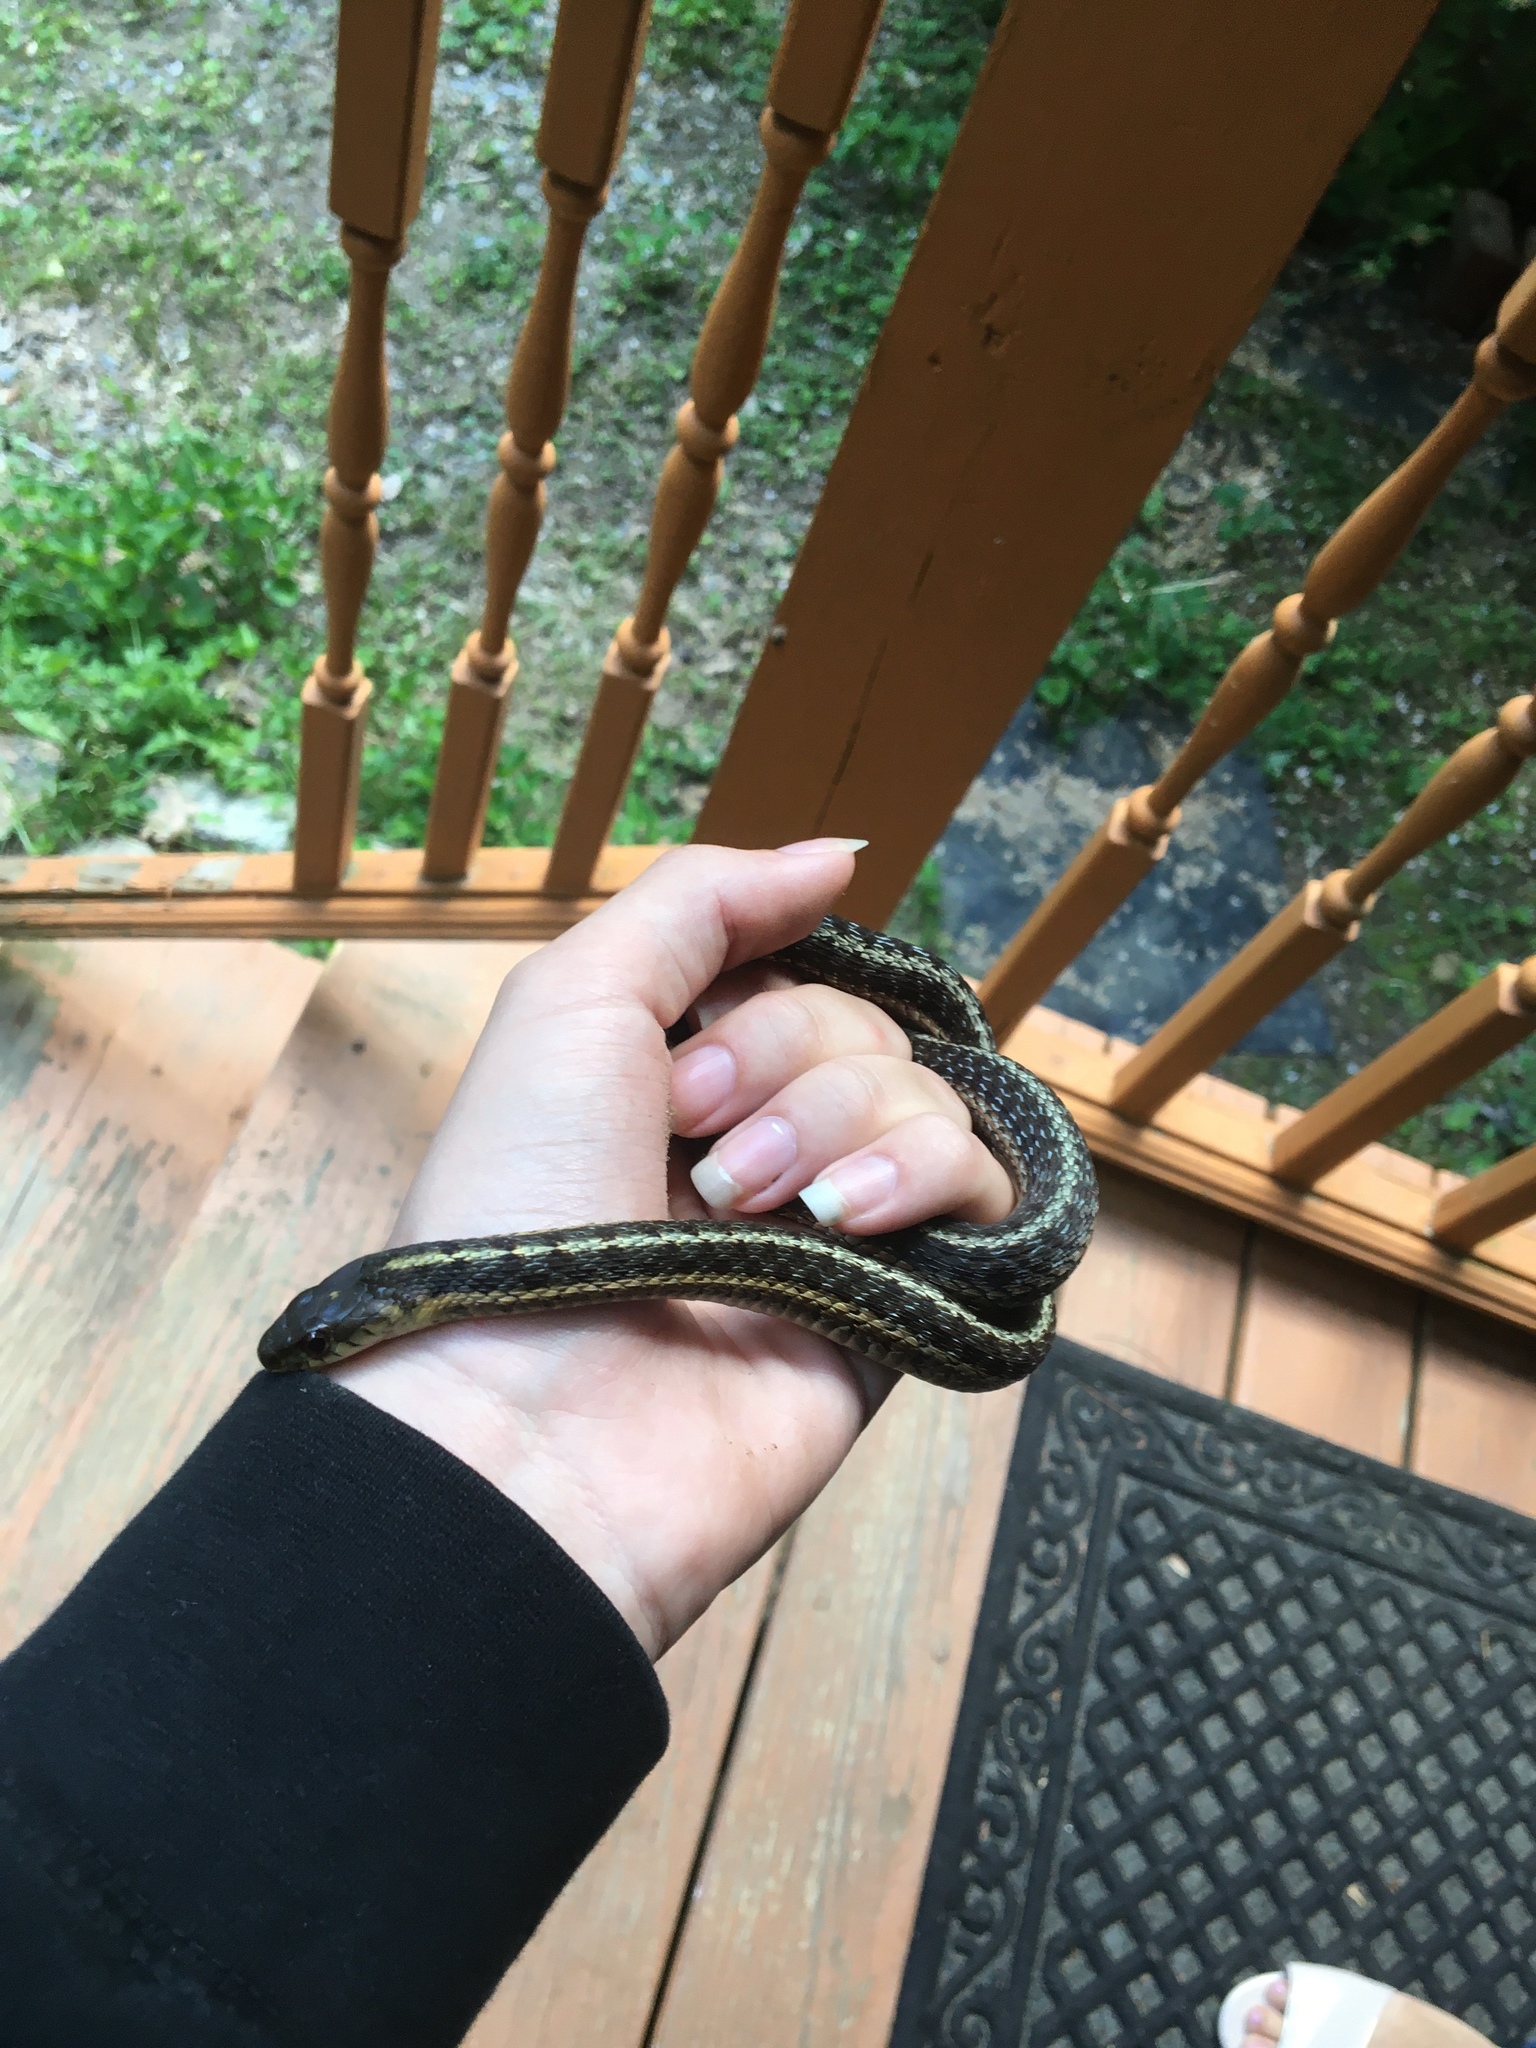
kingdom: Animalia
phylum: Chordata
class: Squamata
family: Colubridae
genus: Thamnophis
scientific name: Thamnophis sirtalis
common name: Common garter snake
